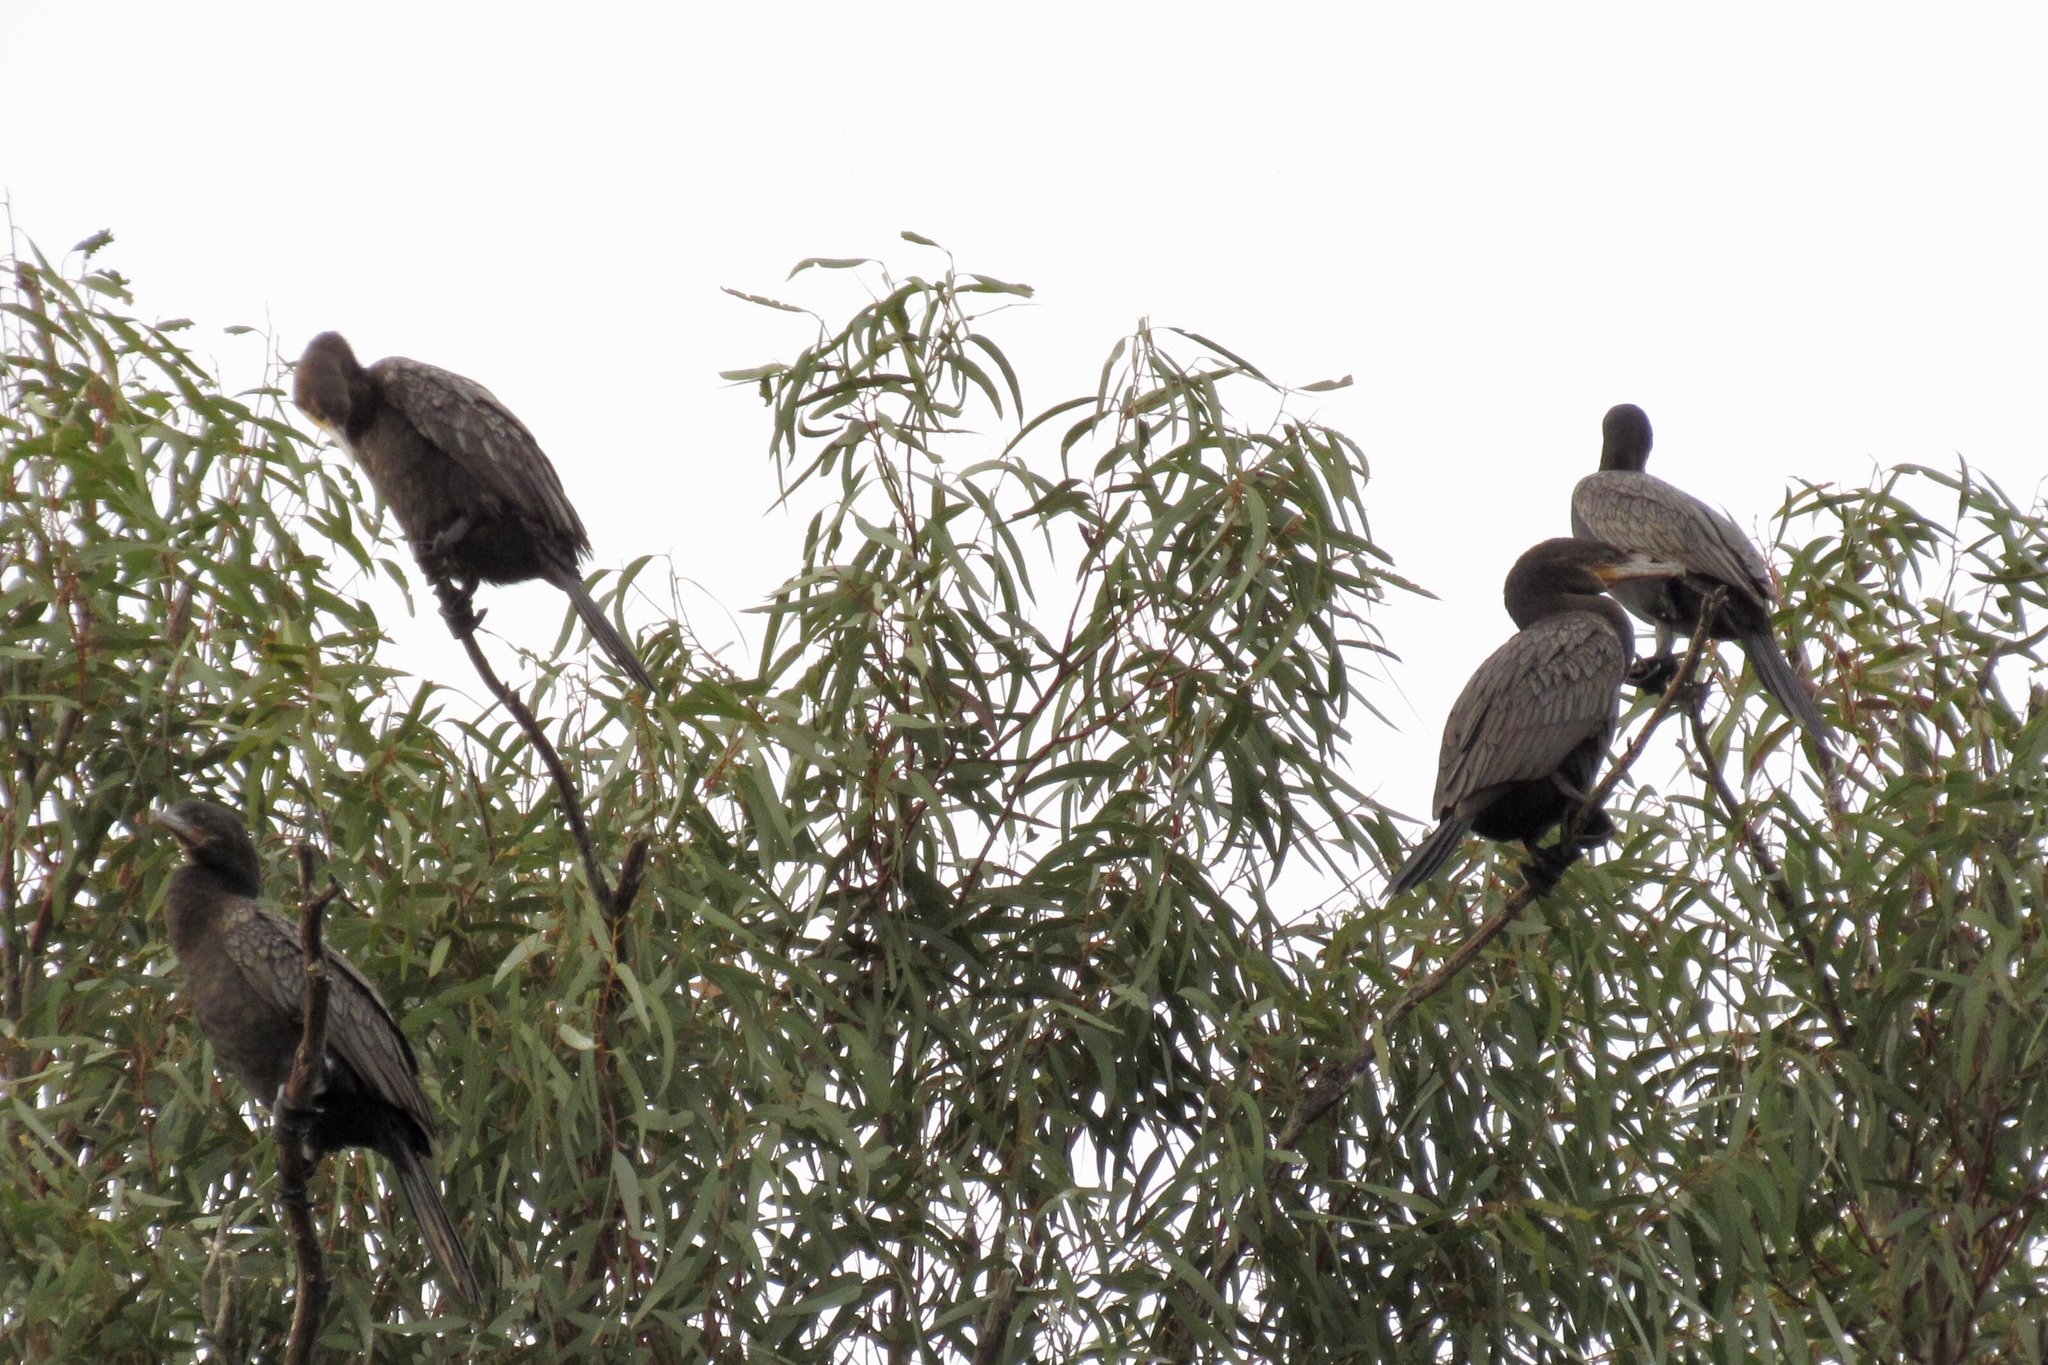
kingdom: Animalia
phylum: Chordata
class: Aves
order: Suliformes
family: Phalacrocoracidae
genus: Phalacrocorax
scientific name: Phalacrocorax brasilianus
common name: Neotropic cormorant
